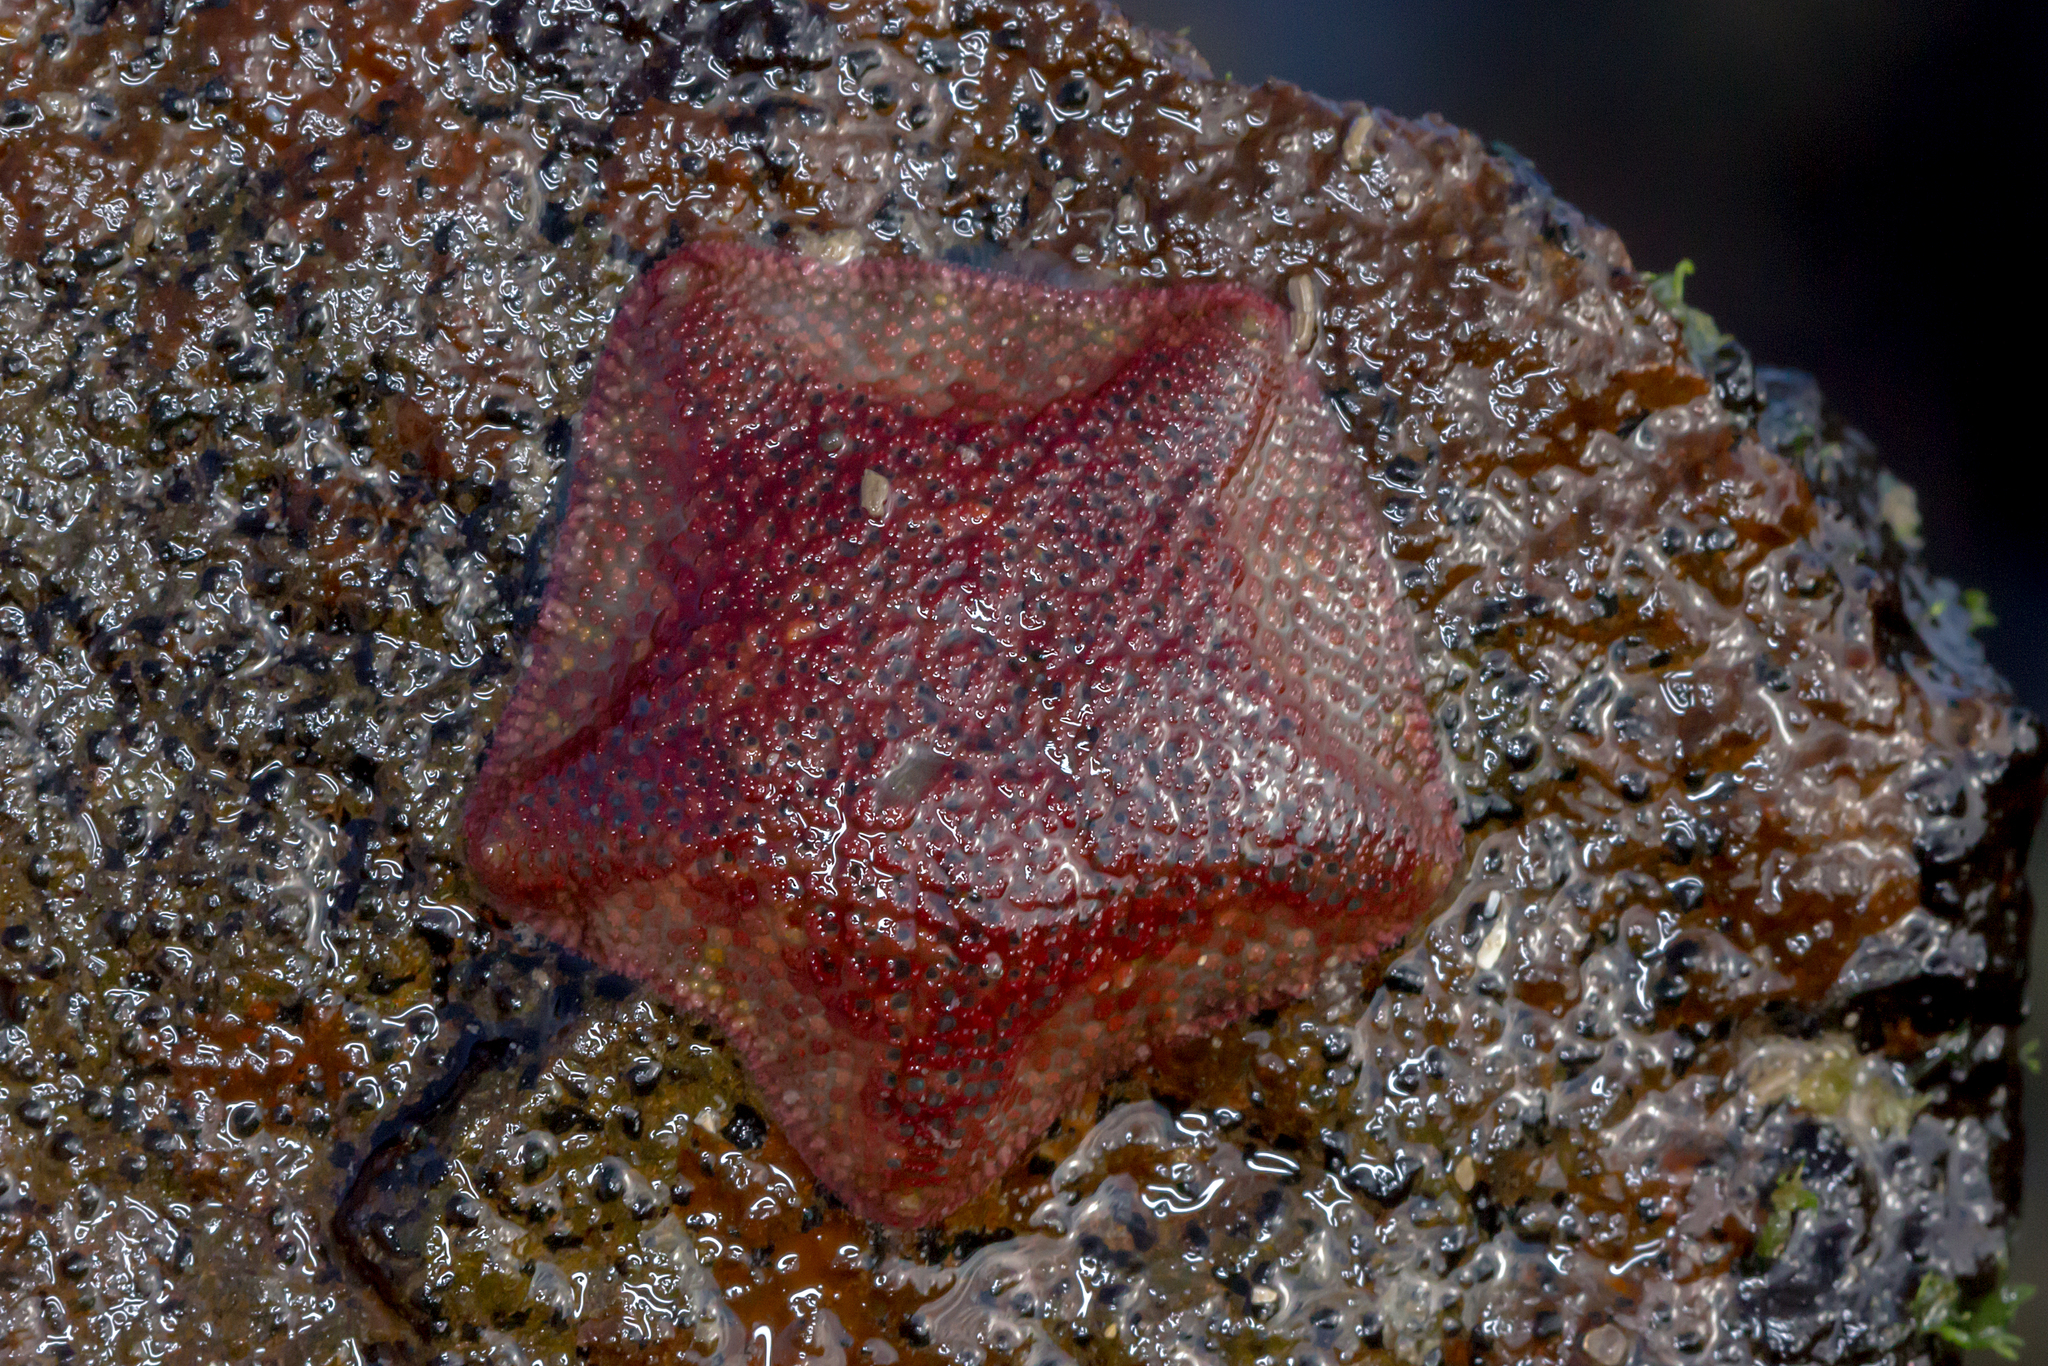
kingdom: Animalia
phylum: Echinodermata
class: Asteroidea
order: Valvatida
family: Asterinidae
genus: Parvulastra
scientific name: Parvulastra exigua
